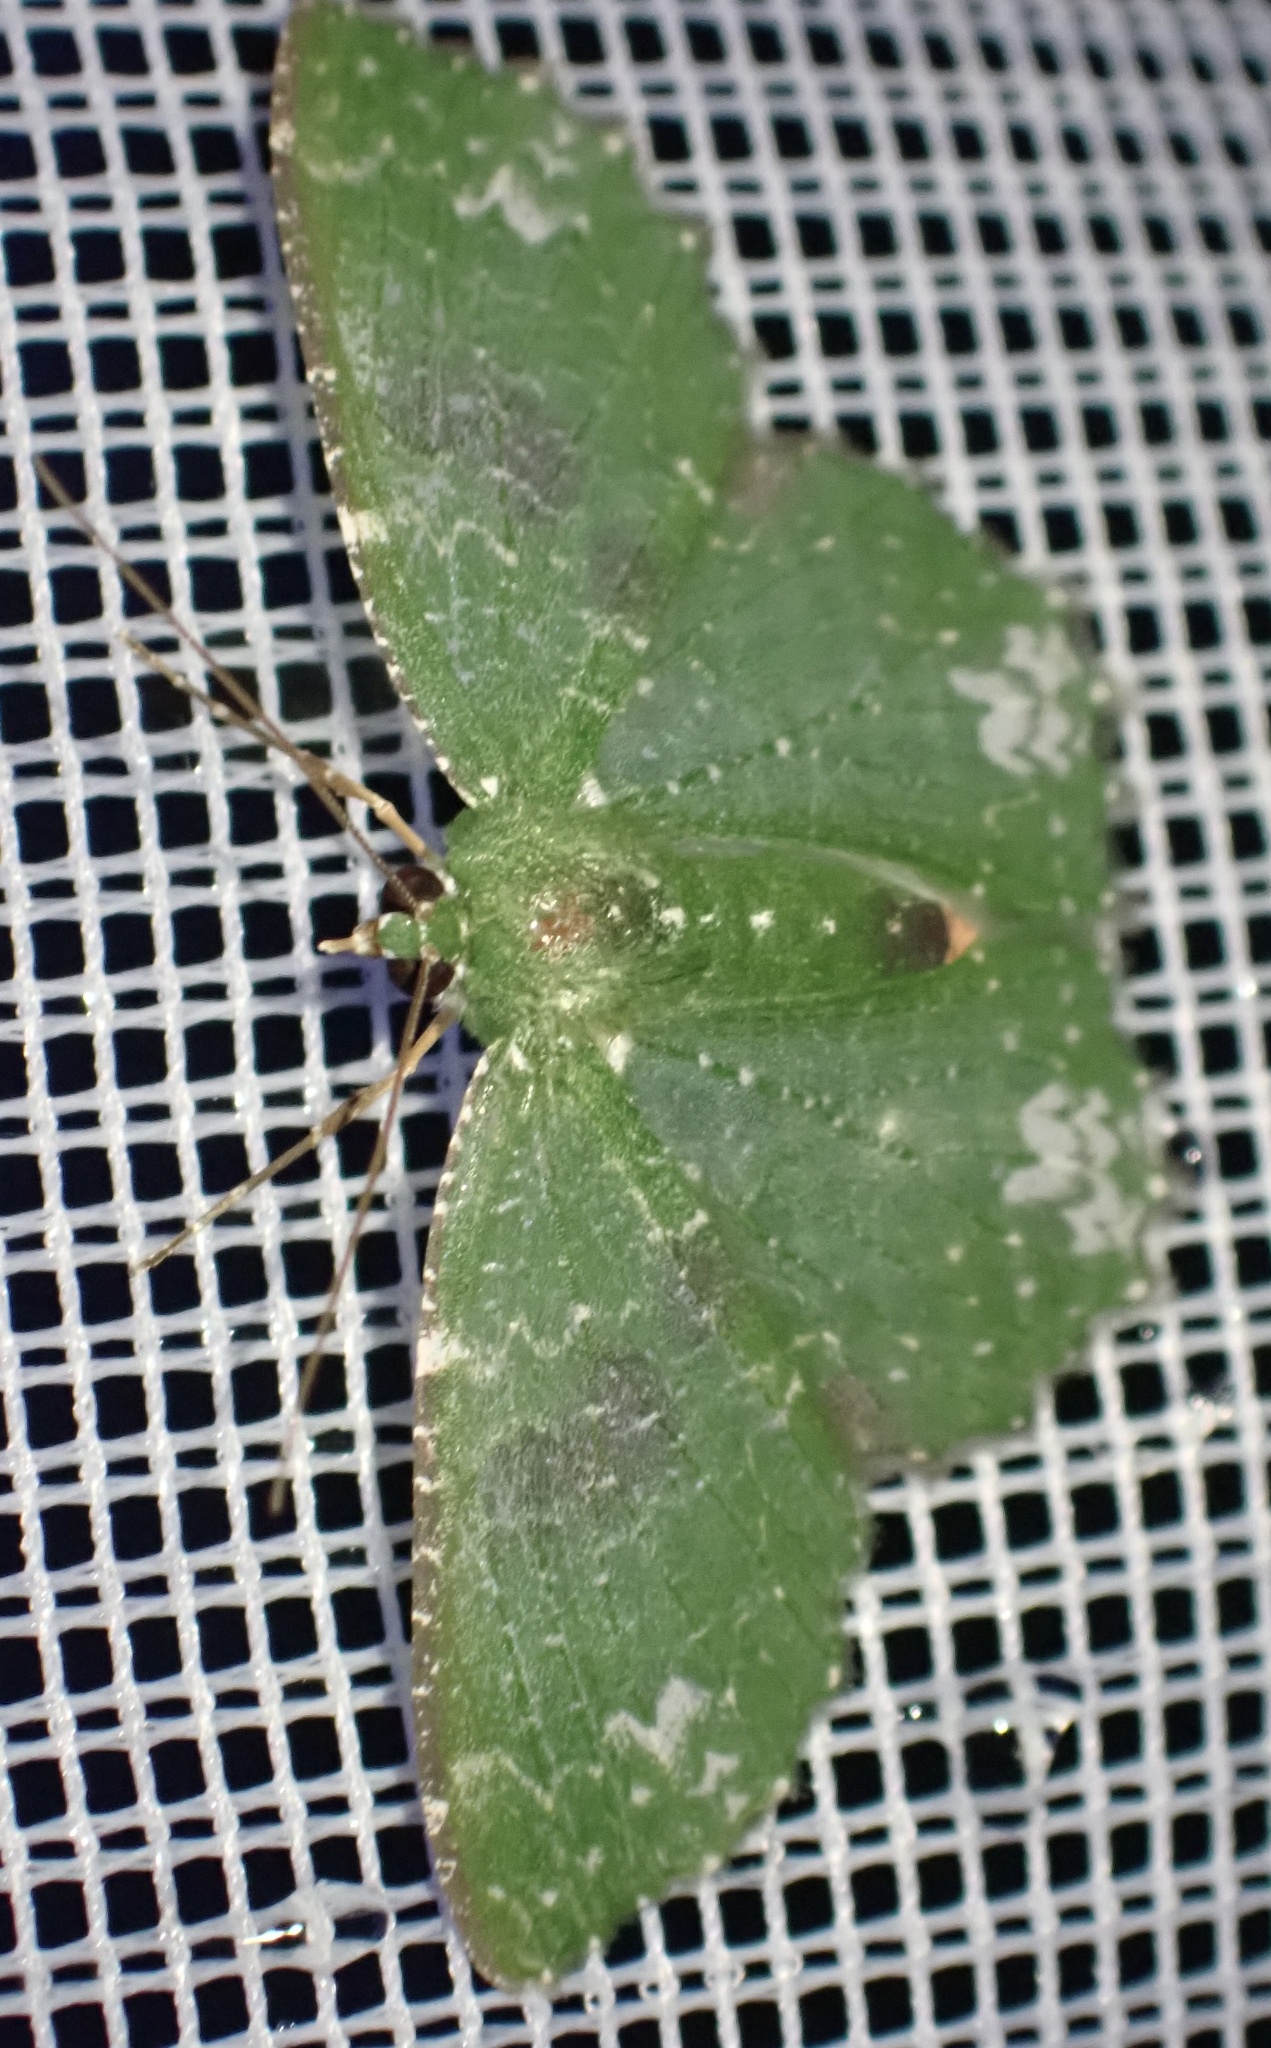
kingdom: Animalia
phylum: Arthropoda
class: Insecta
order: Lepidoptera
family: Geometridae
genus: Eucyclodes
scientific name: Eucyclodes albinata
